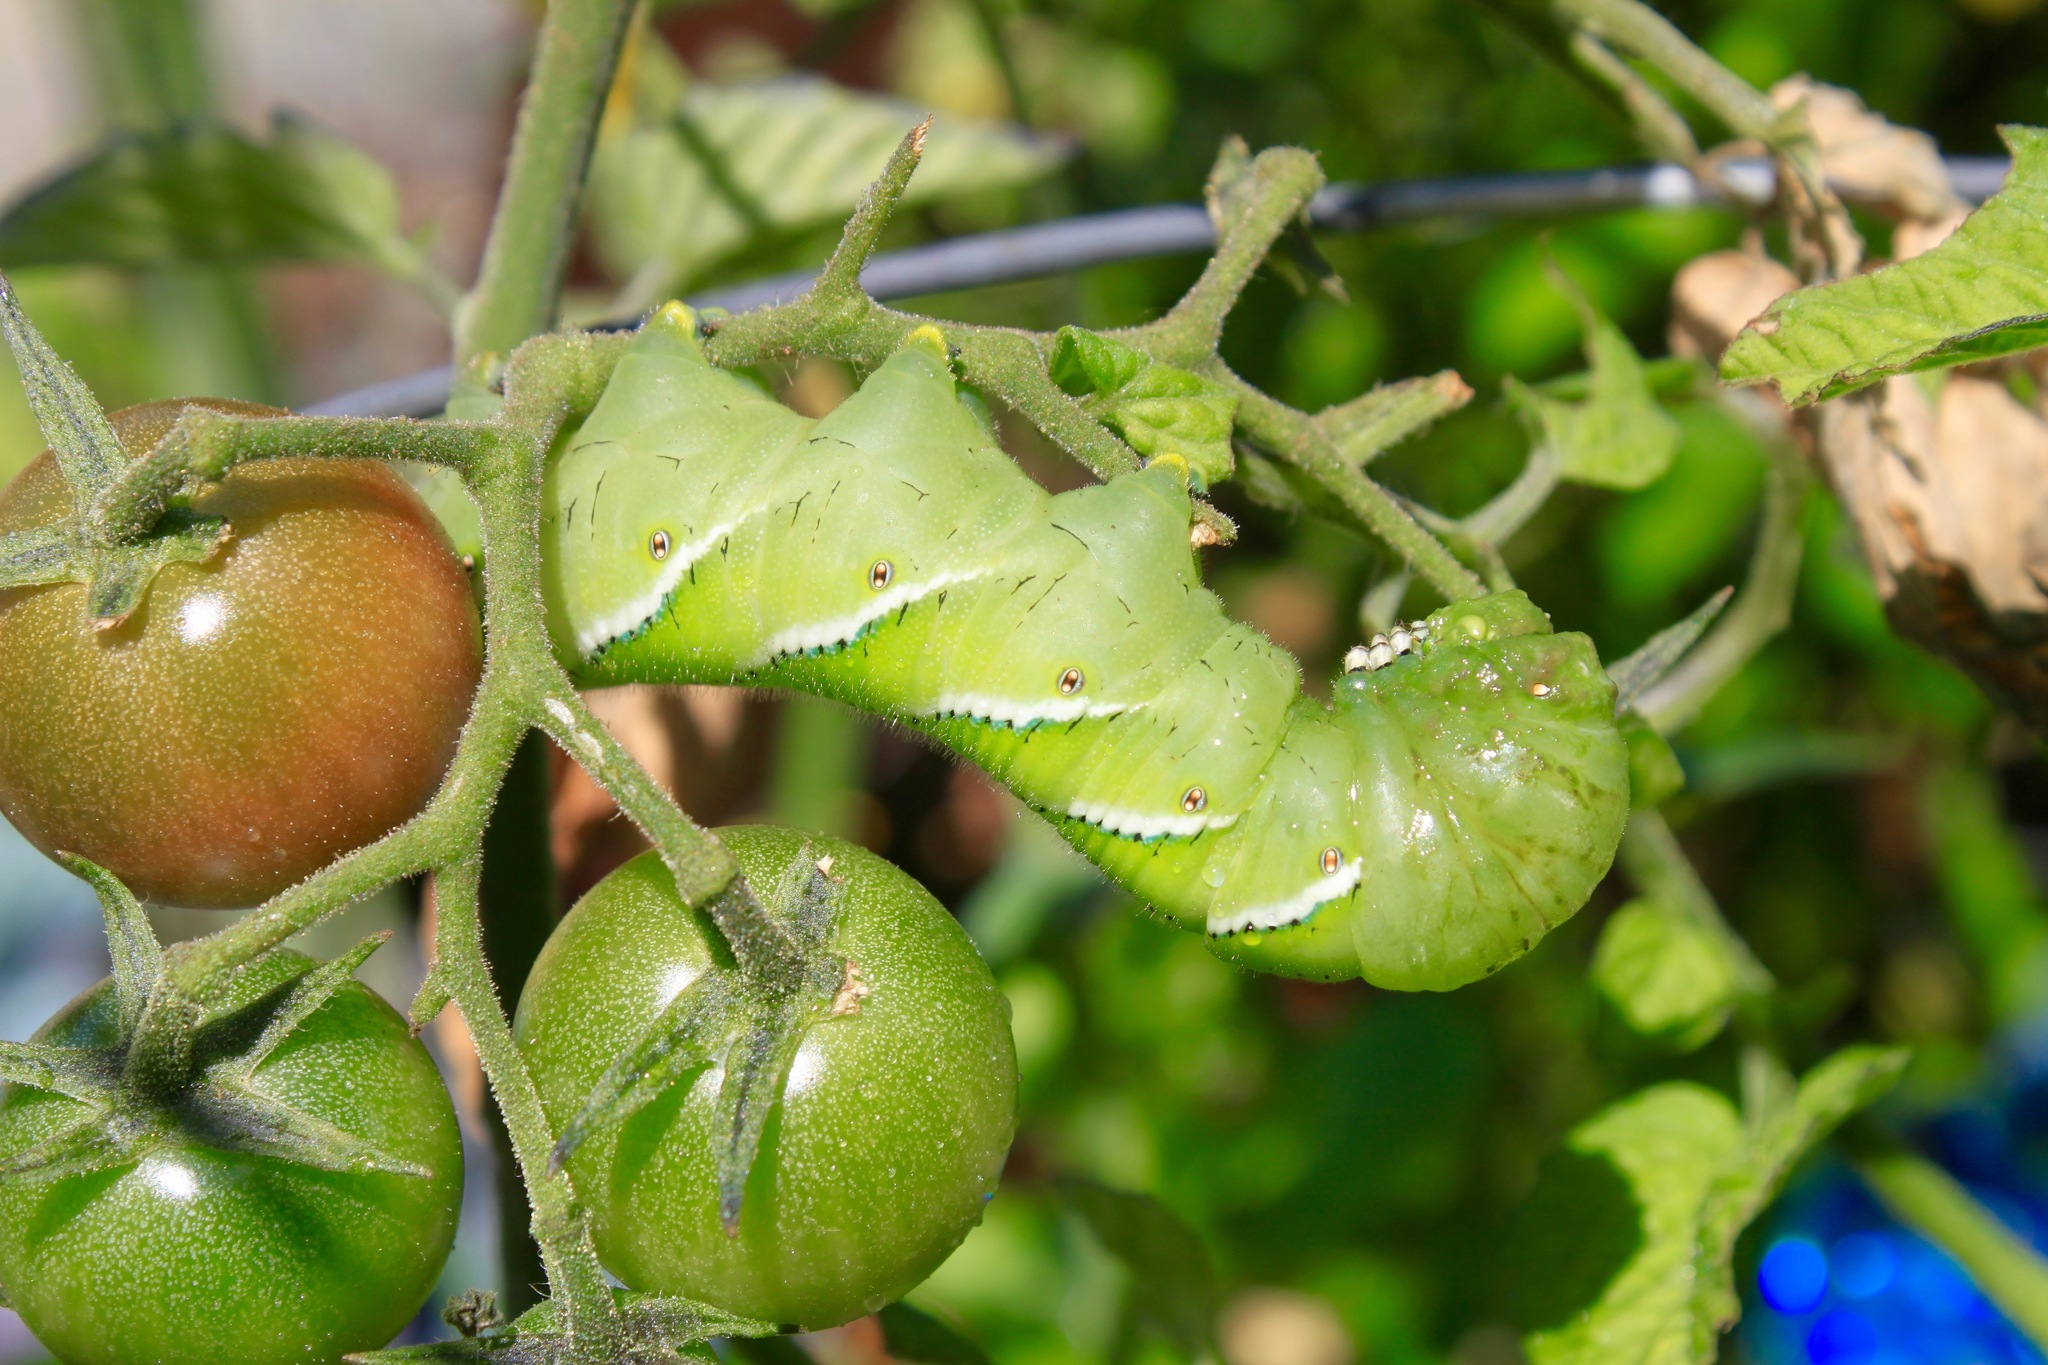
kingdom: Animalia
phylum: Arthropoda
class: Insecta
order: Lepidoptera
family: Sphingidae
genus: Manduca
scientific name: Manduca sexta
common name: Carolina sphinx
